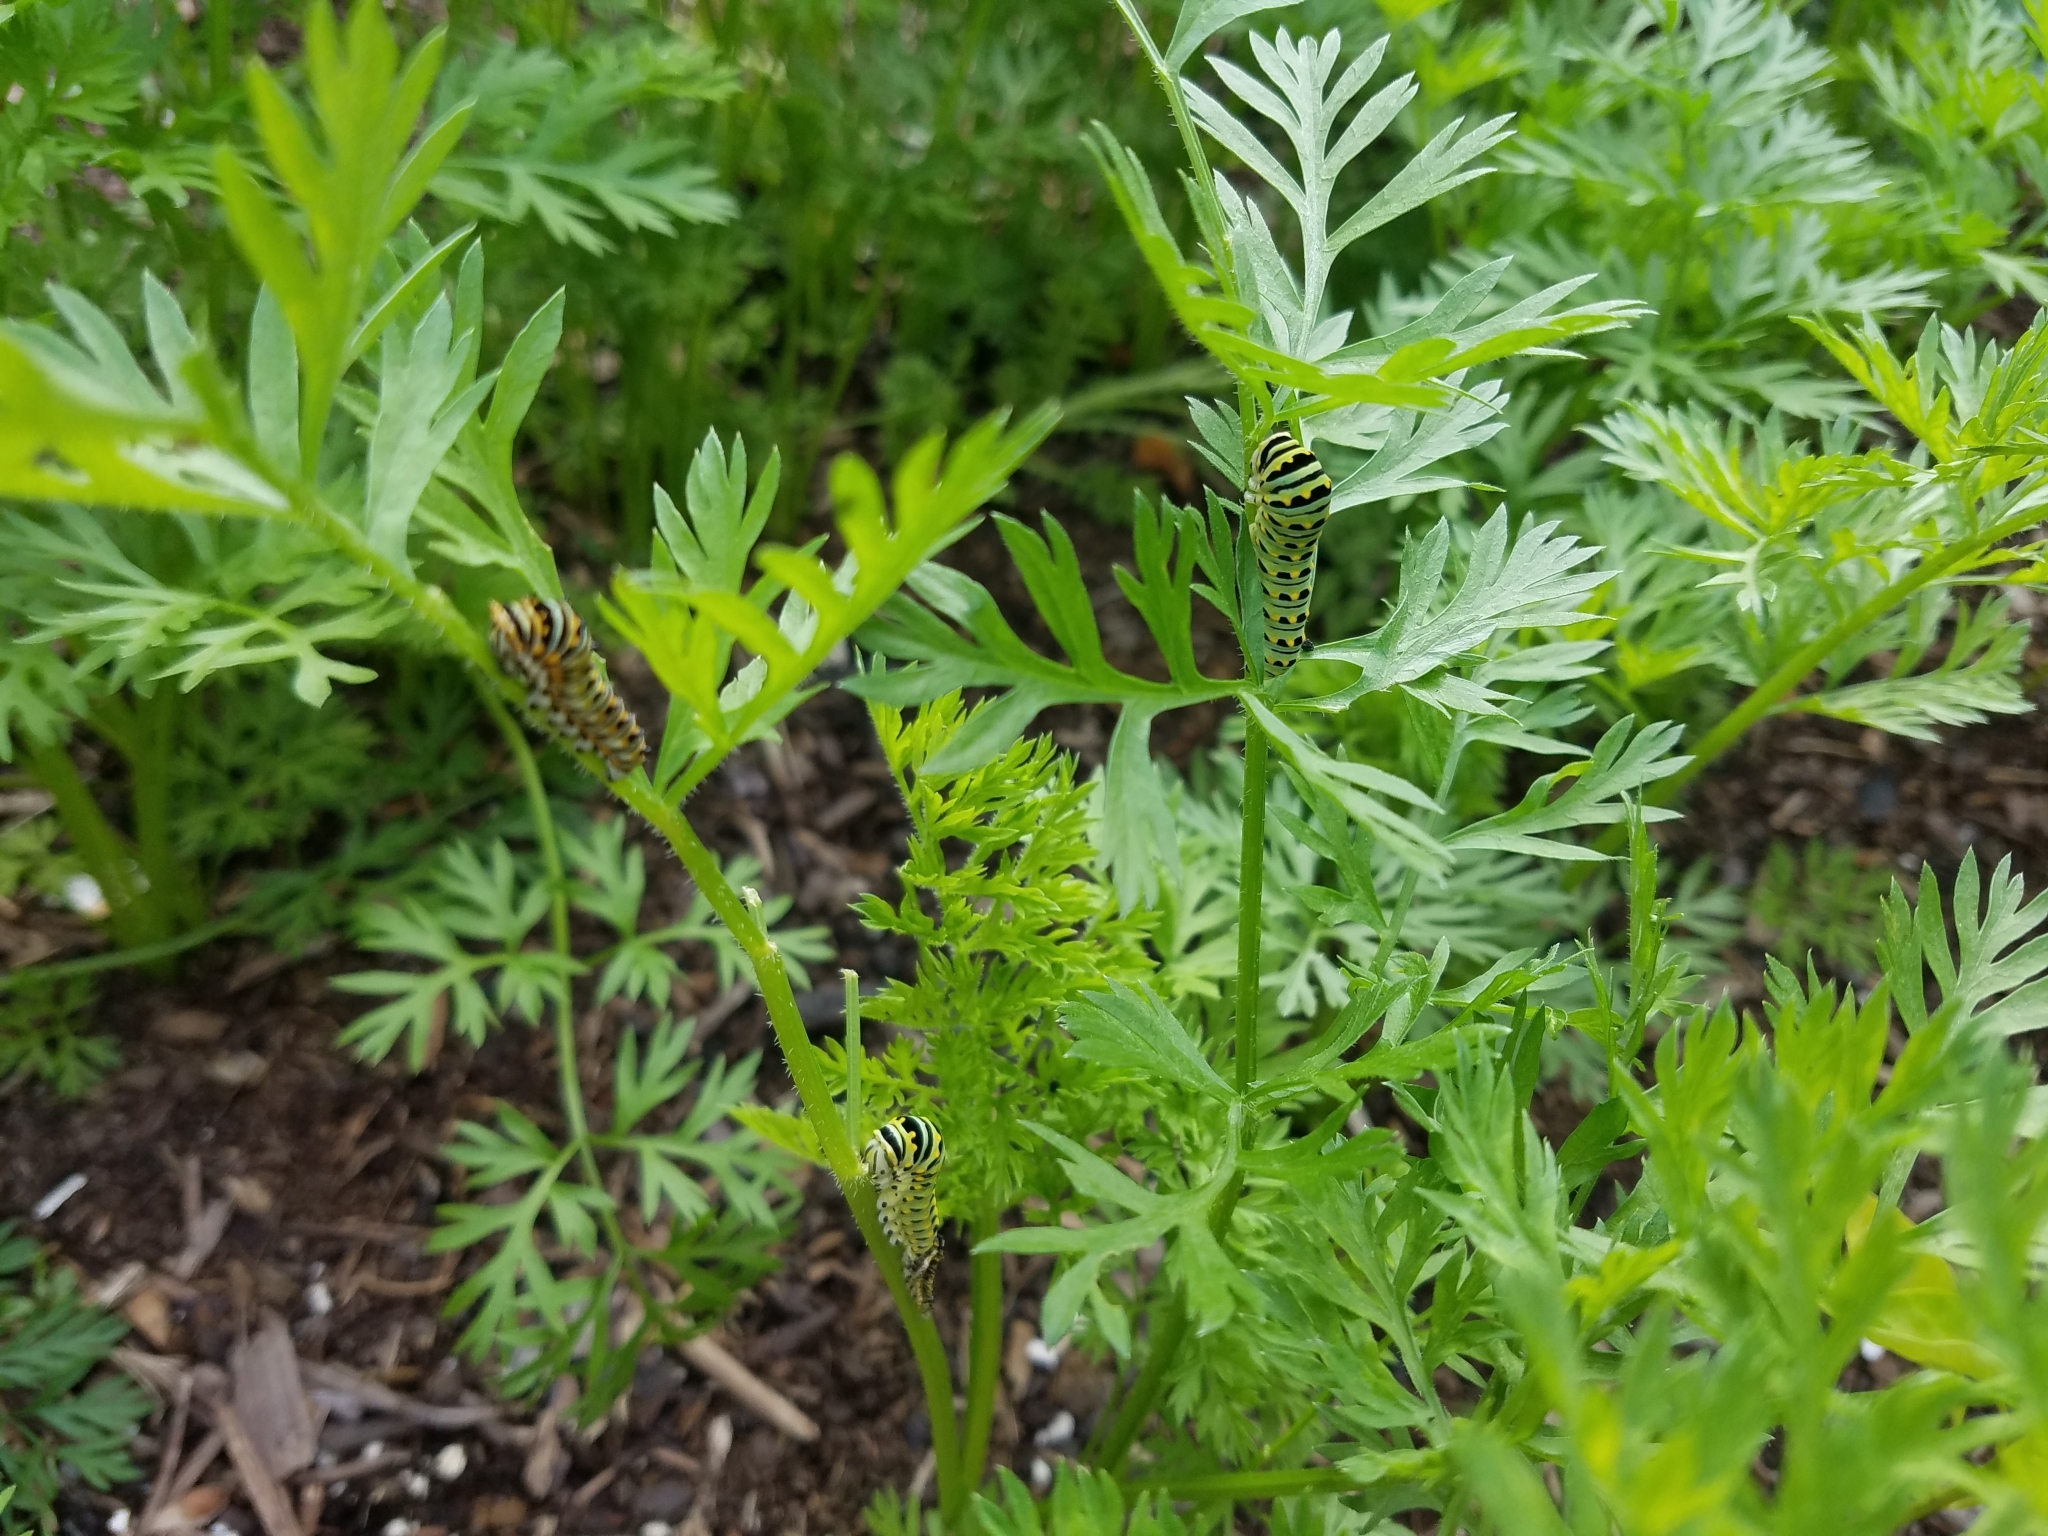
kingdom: Animalia
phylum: Arthropoda
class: Insecta
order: Lepidoptera
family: Papilionidae
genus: Papilio
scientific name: Papilio polyxenes
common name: Black swallowtail
